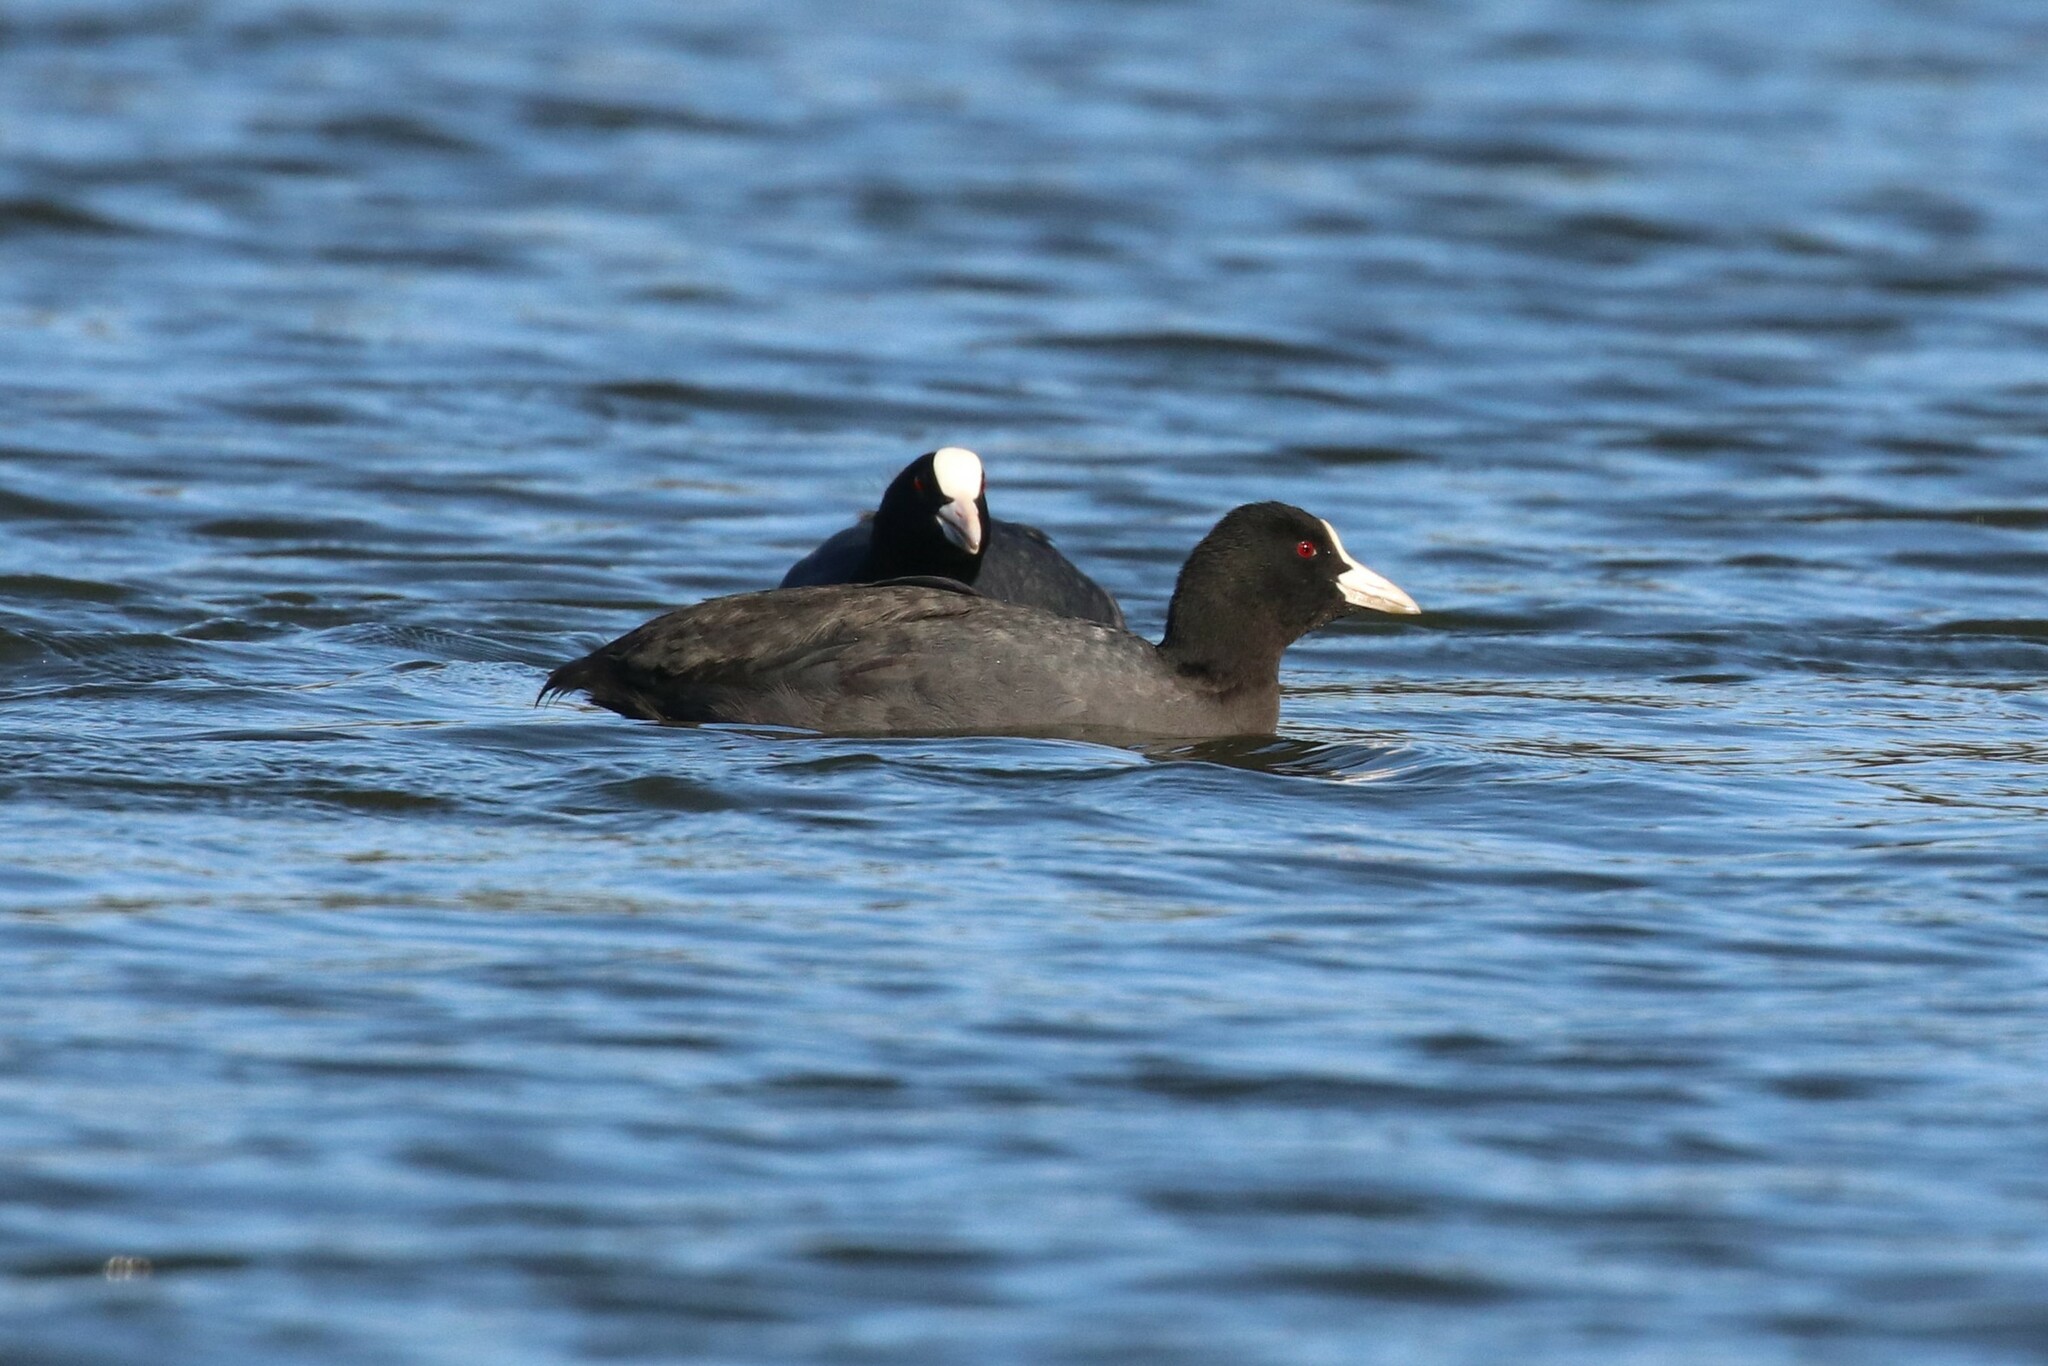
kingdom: Animalia
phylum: Chordata
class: Aves
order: Gruiformes
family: Rallidae
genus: Fulica
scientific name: Fulica atra
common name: Eurasian coot
